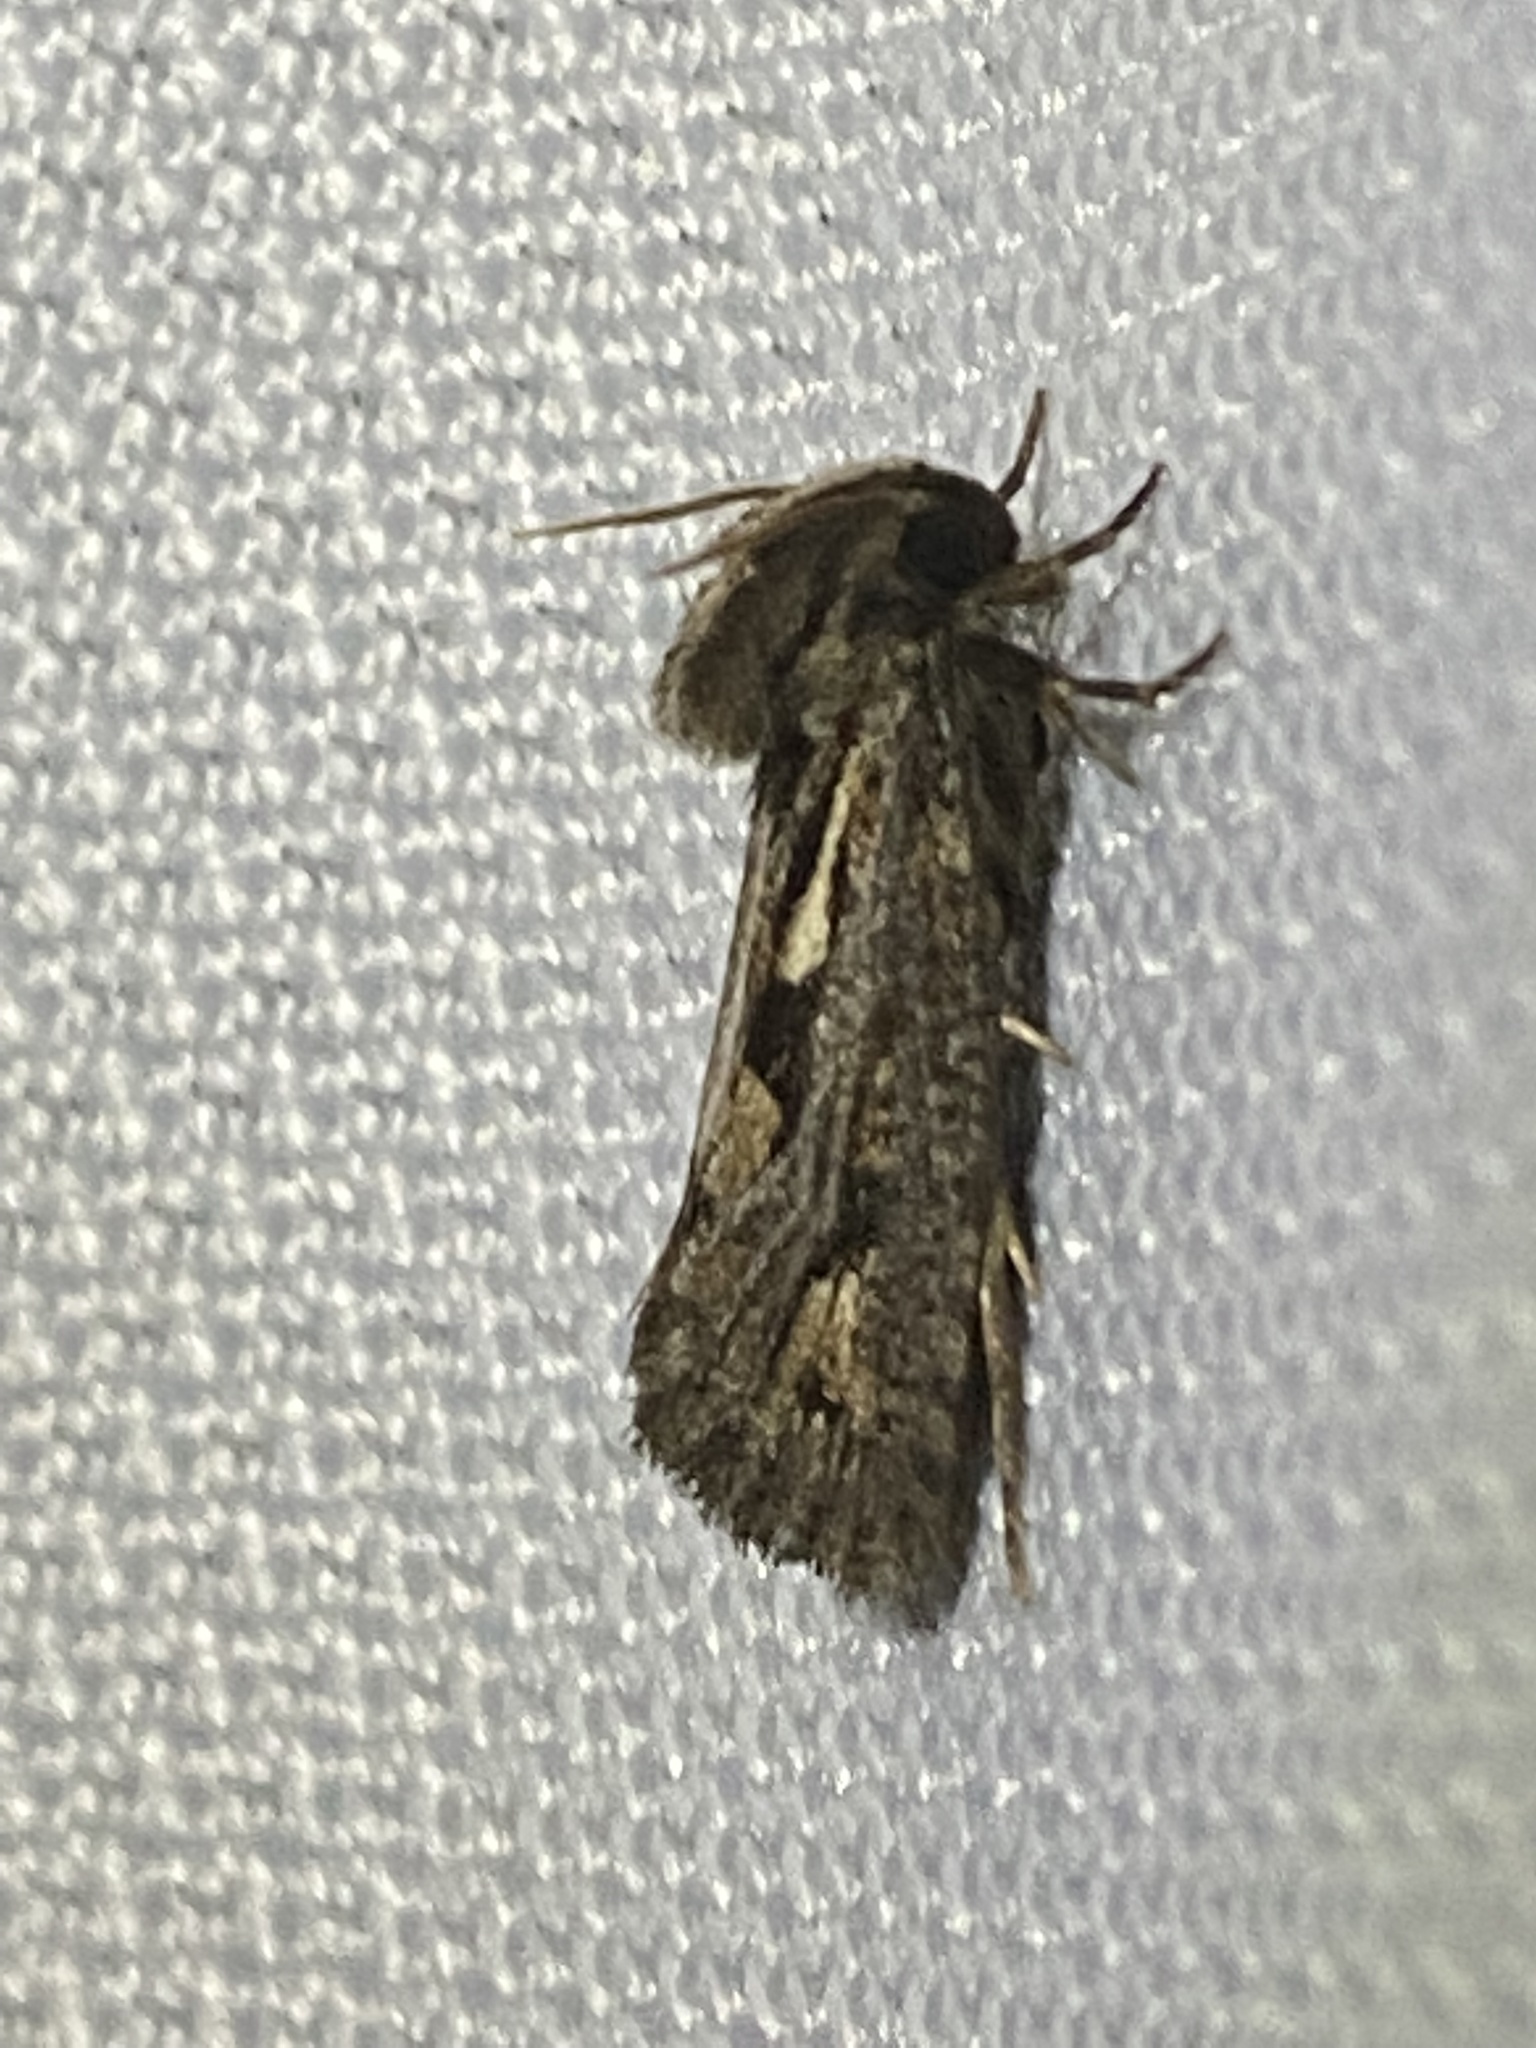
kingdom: Animalia
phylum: Arthropoda
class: Insecta
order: Lepidoptera
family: Tineidae
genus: Acrolophus
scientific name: Acrolophus popeanella
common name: Clemens' grass tubeworm moth
